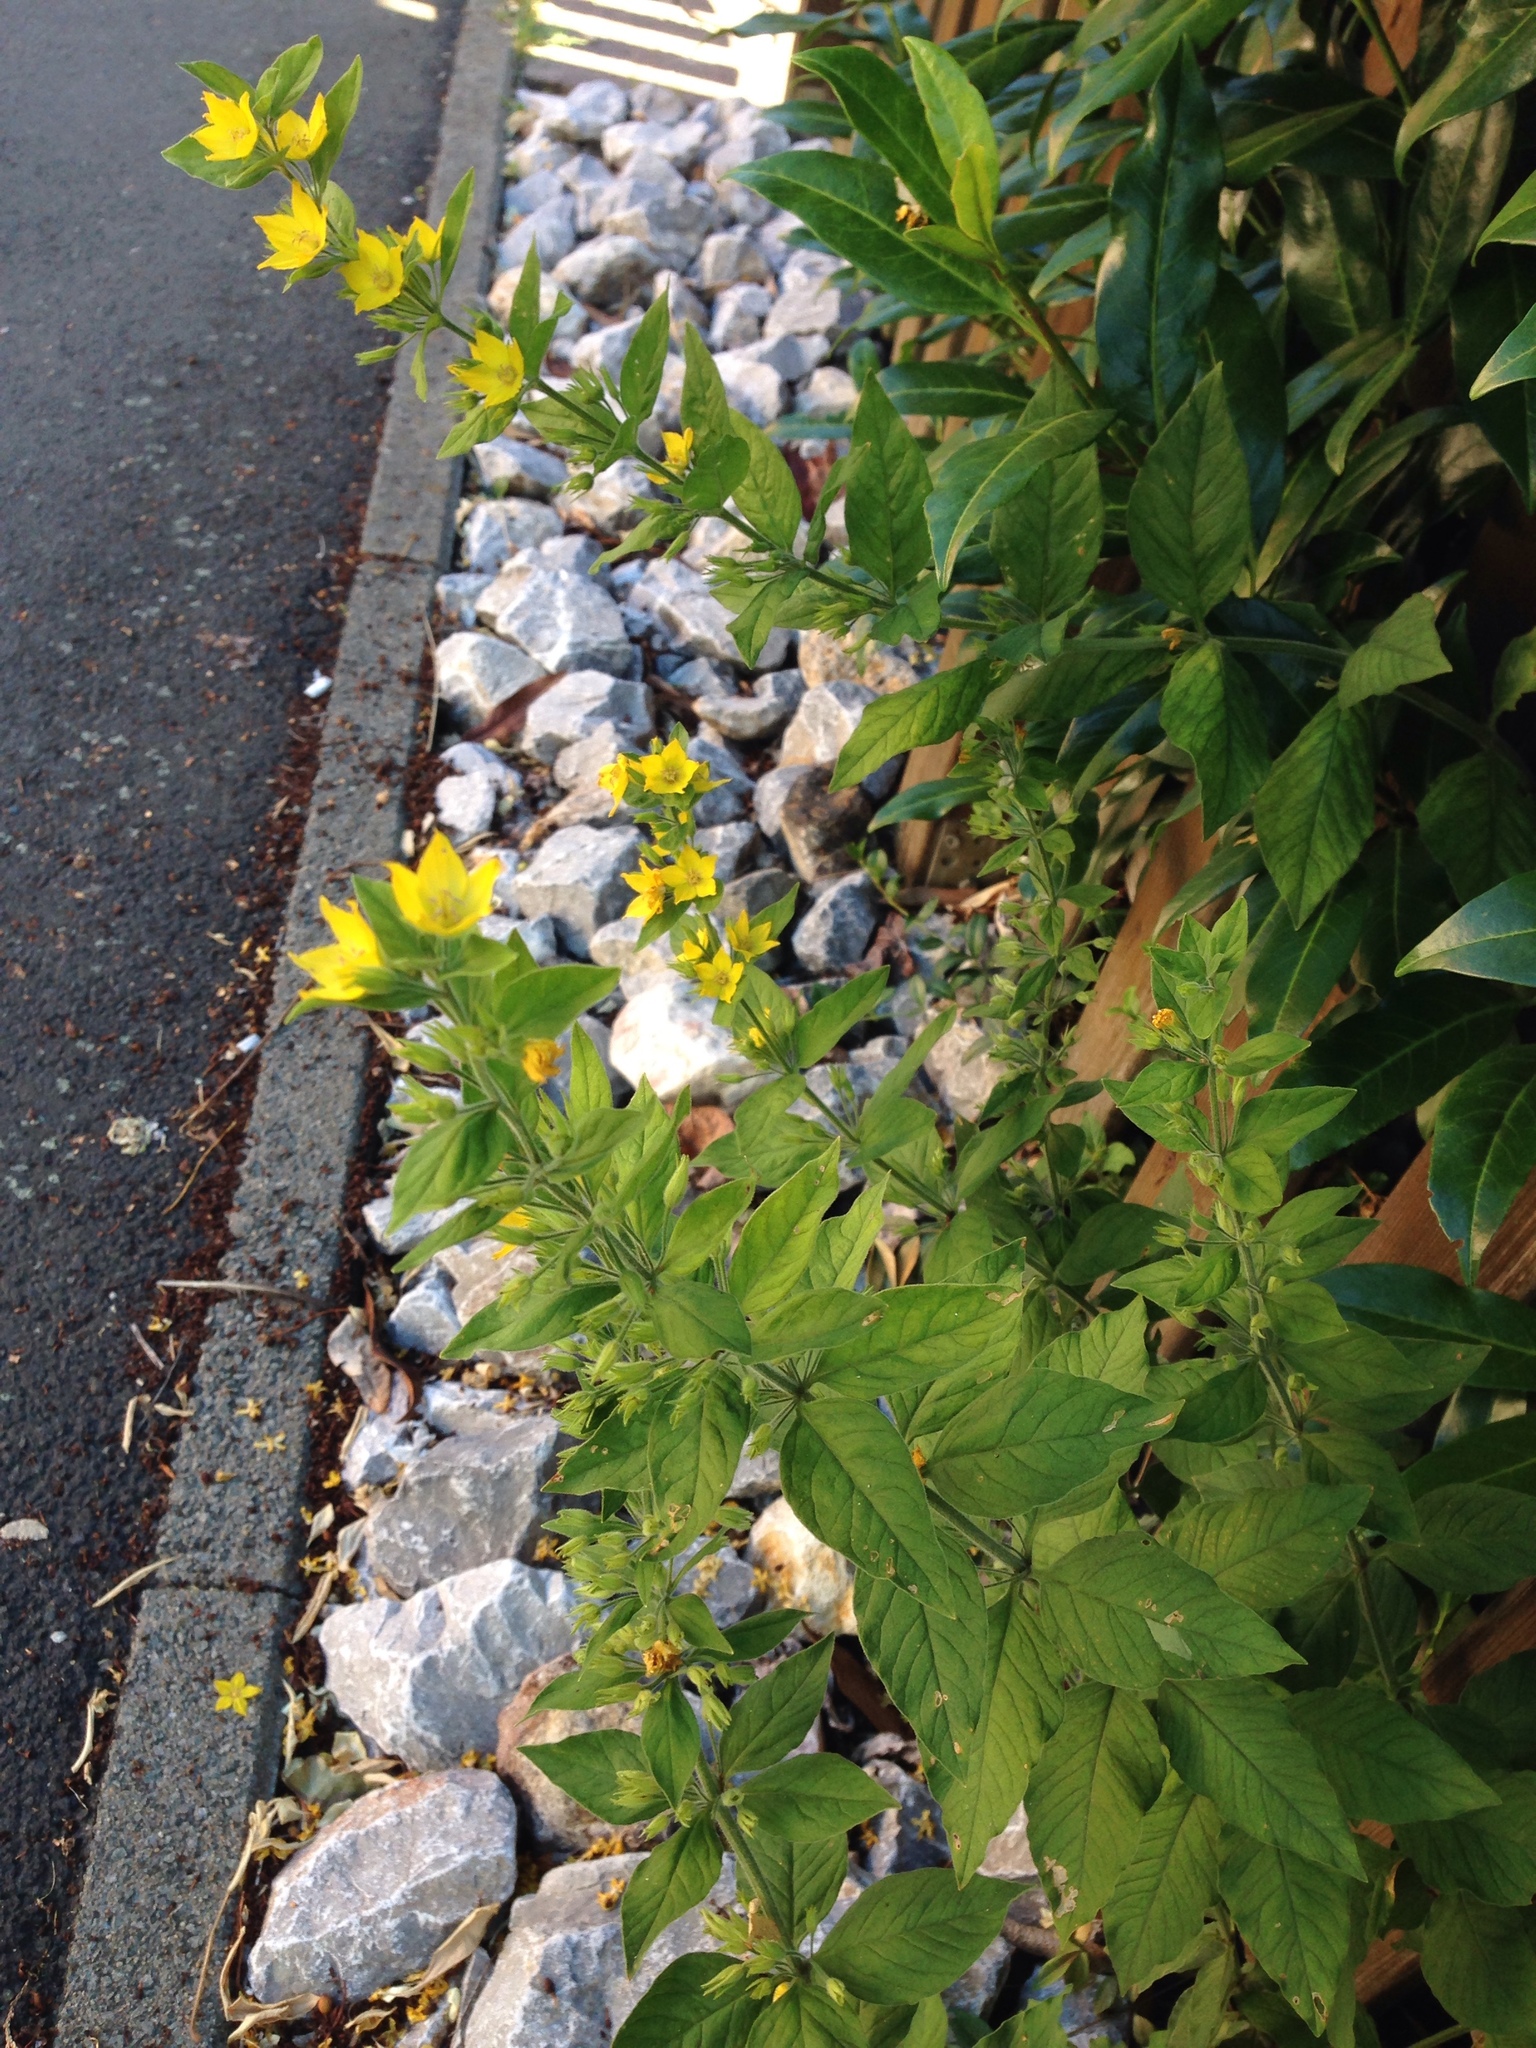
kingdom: Plantae
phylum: Tracheophyta
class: Magnoliopsida
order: Ericales
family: Primulaceae
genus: Lysimachia
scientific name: Lysimachia punctata
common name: Dotted loosestrife
